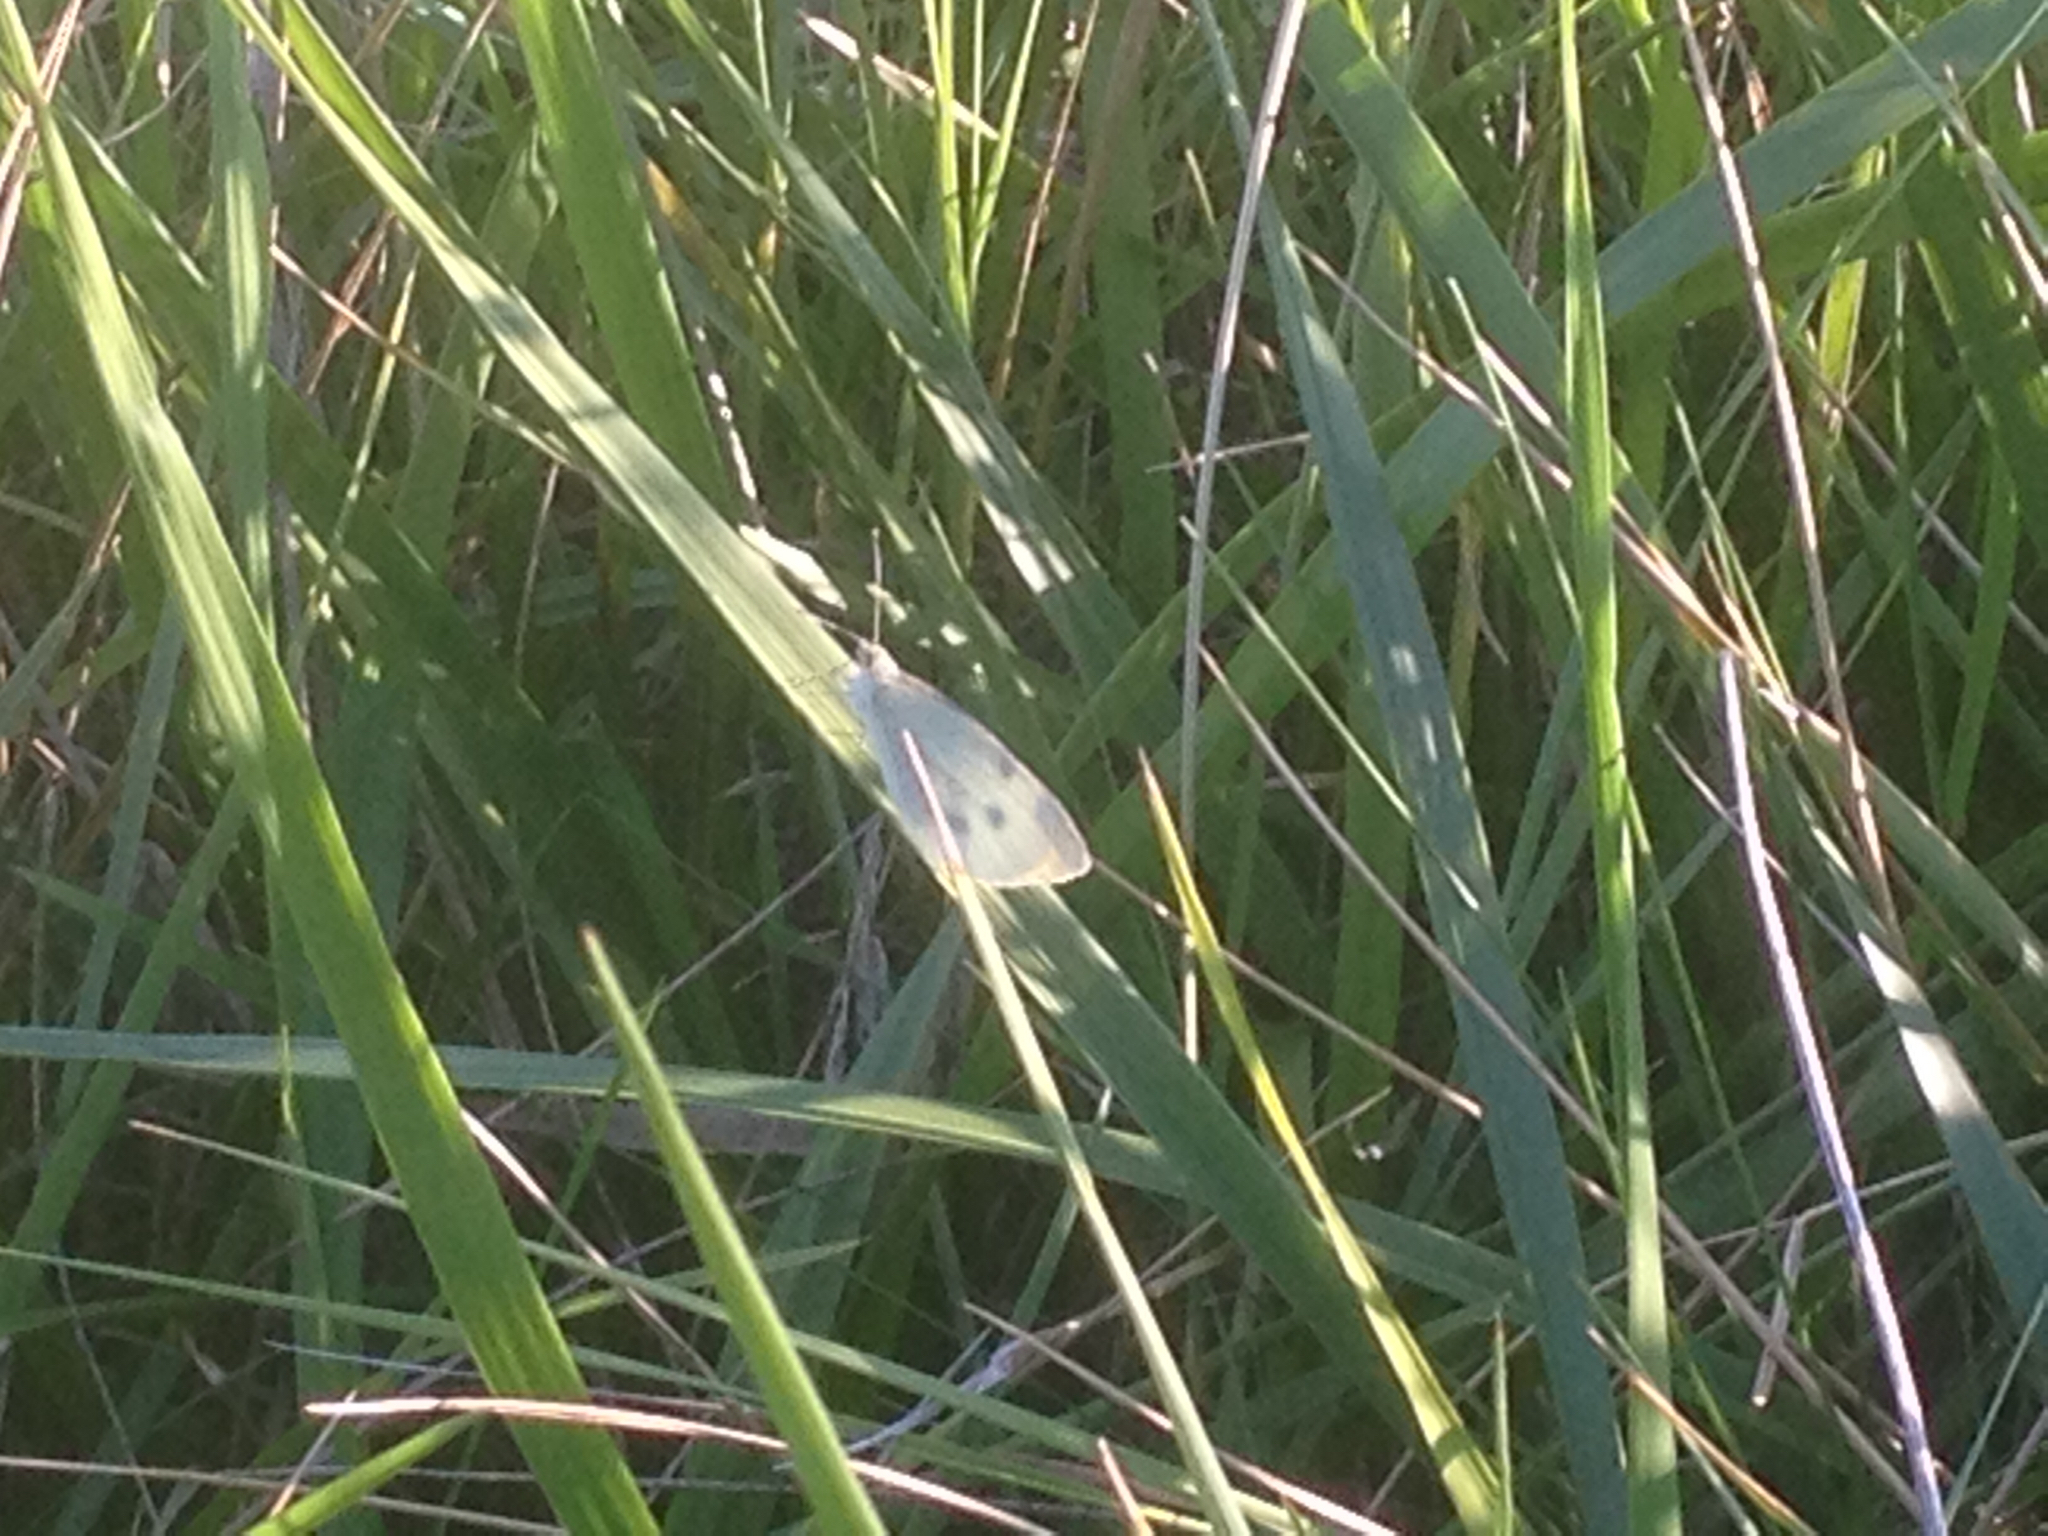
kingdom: Animalia
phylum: Arthropoda
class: Insecta
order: Lepidoptera
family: Pieridae
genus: Pieris
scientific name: Pieris rapae
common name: Small white
